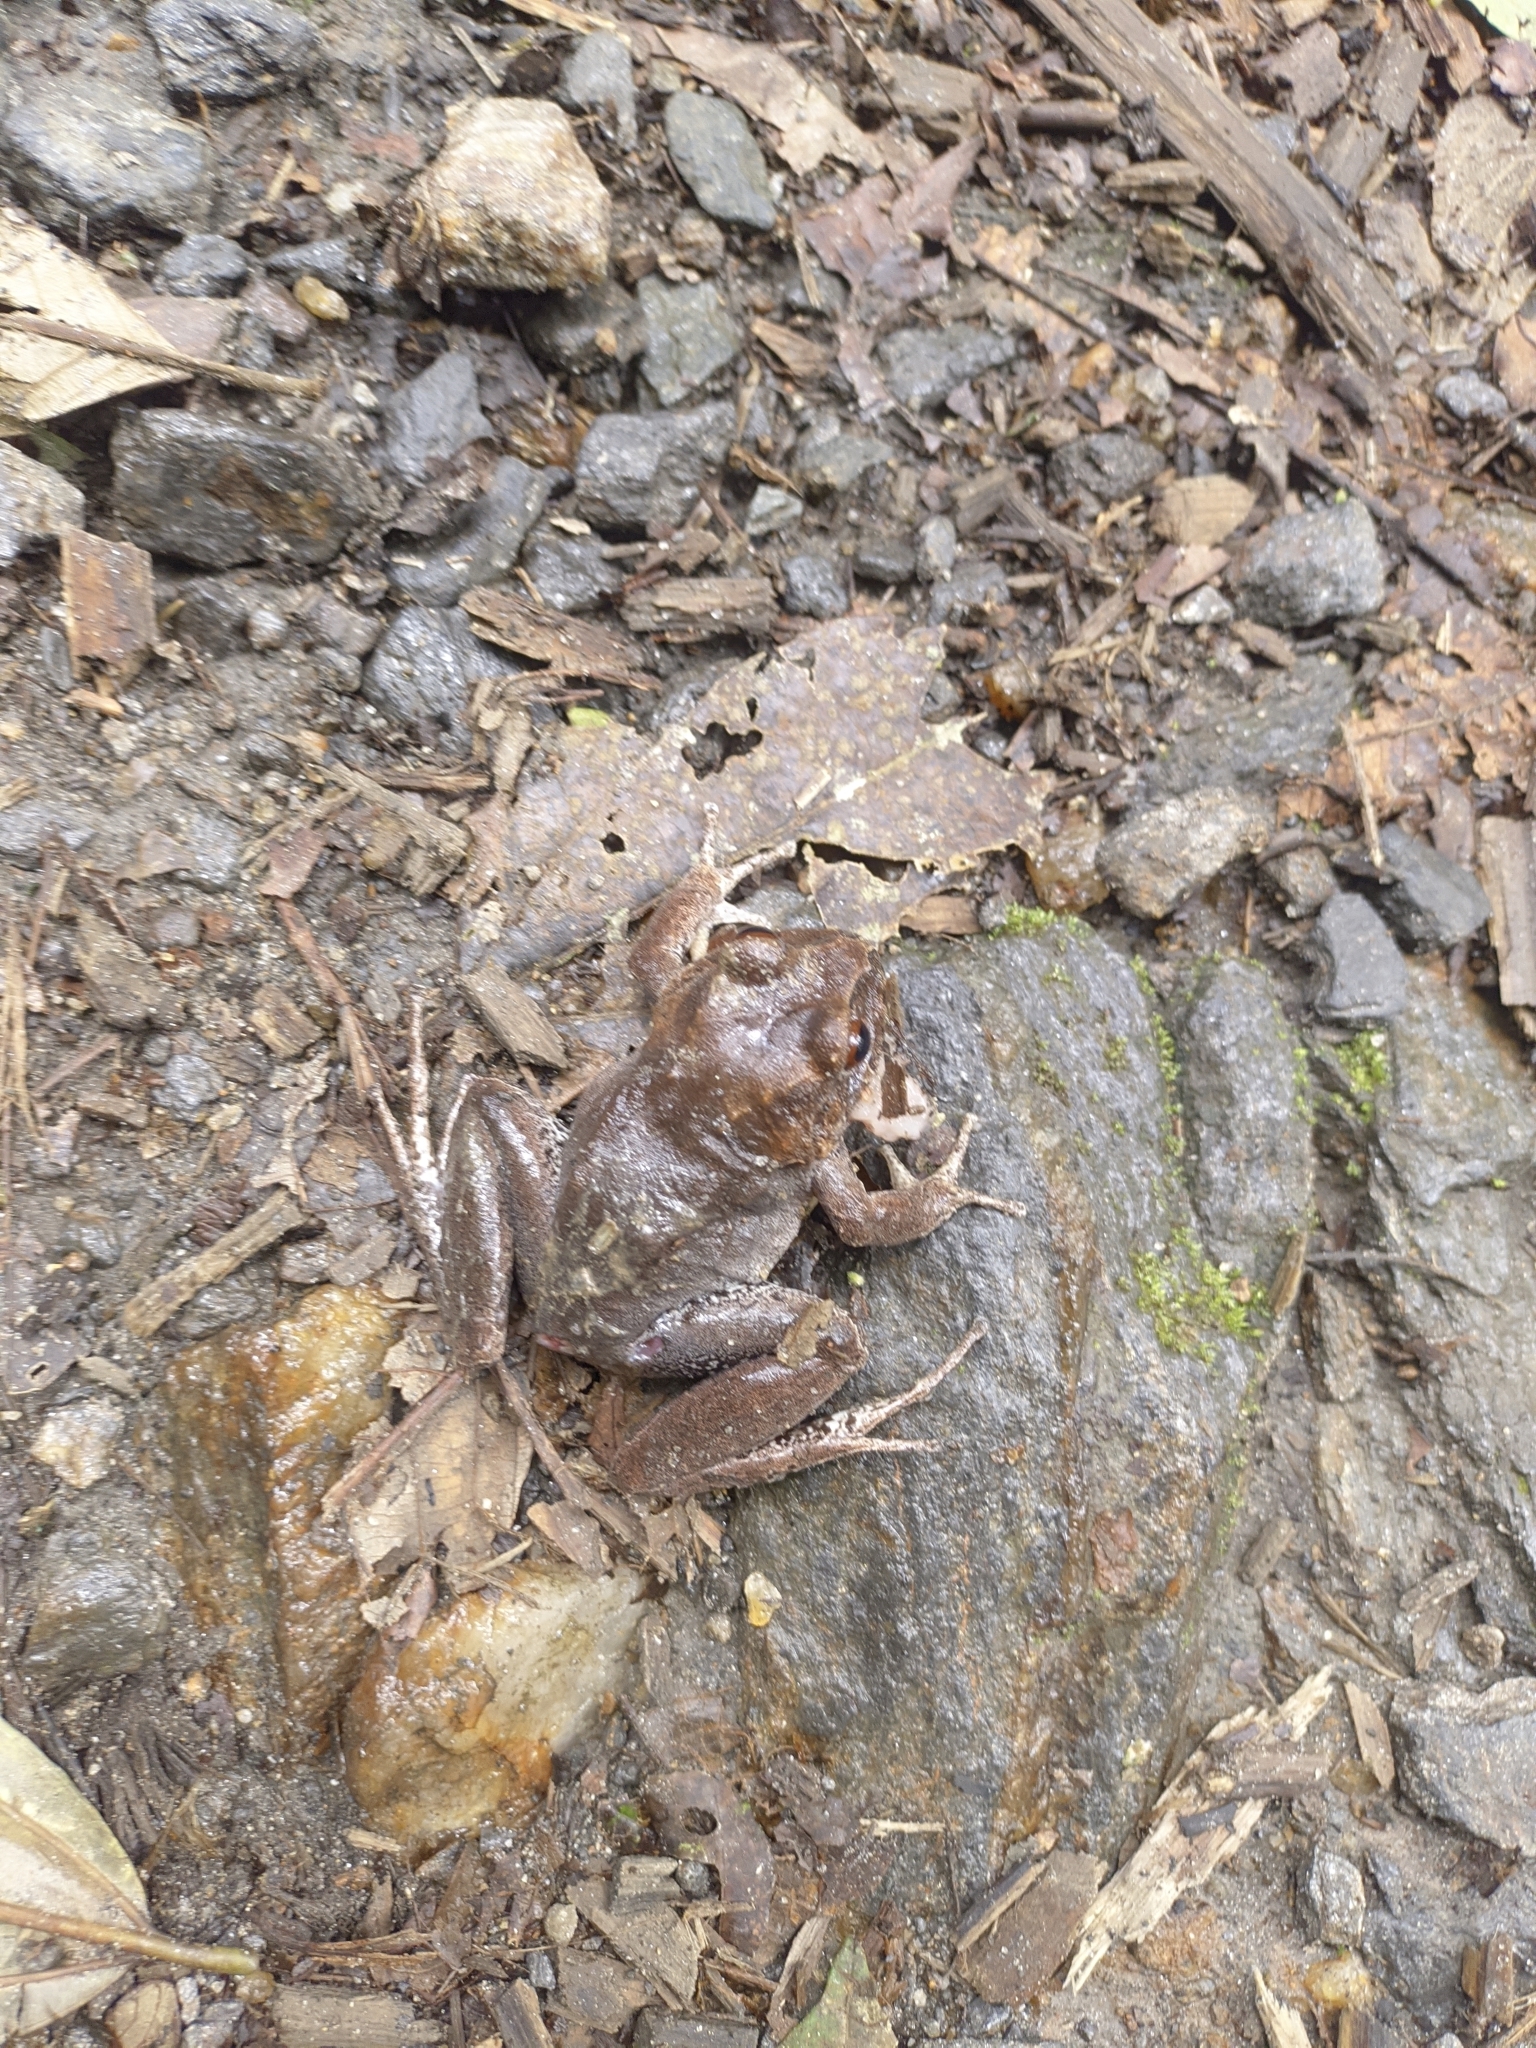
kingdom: Animalia
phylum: Chordata
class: Amphibia
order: Anura
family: Craugastoridae
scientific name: Craugastoridae
